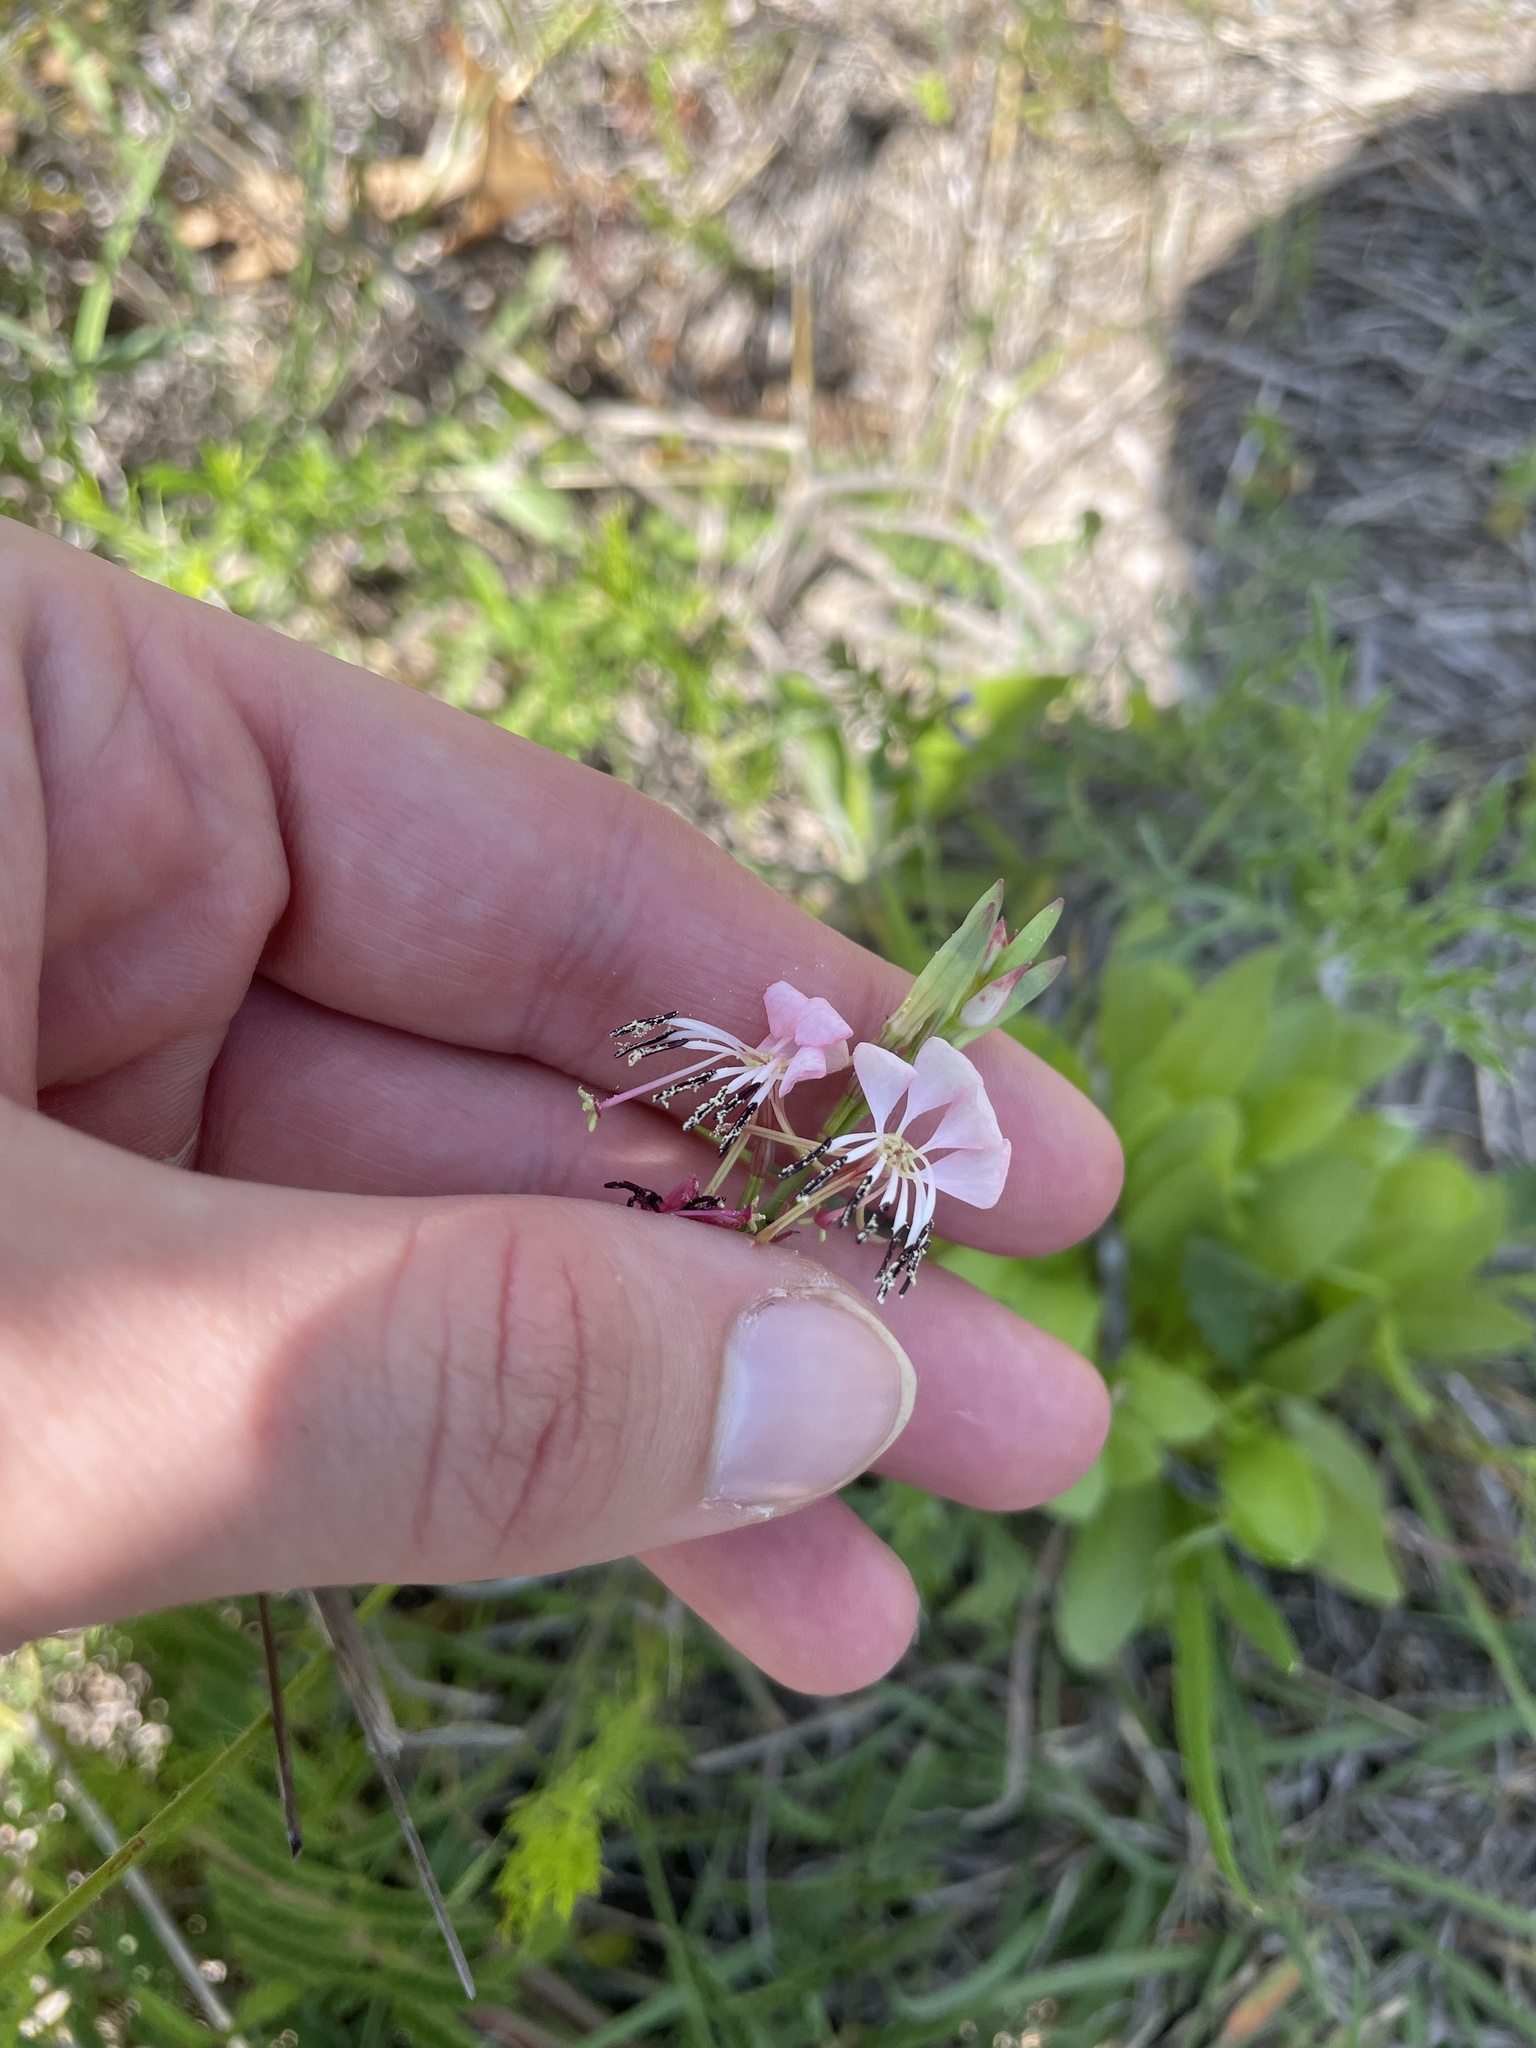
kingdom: Plantae
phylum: Tracheophyta
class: Magnoliopsida
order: Myrtales
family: Onagraceae
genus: Oenothera
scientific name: Oenothera suffulta
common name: Kisses
